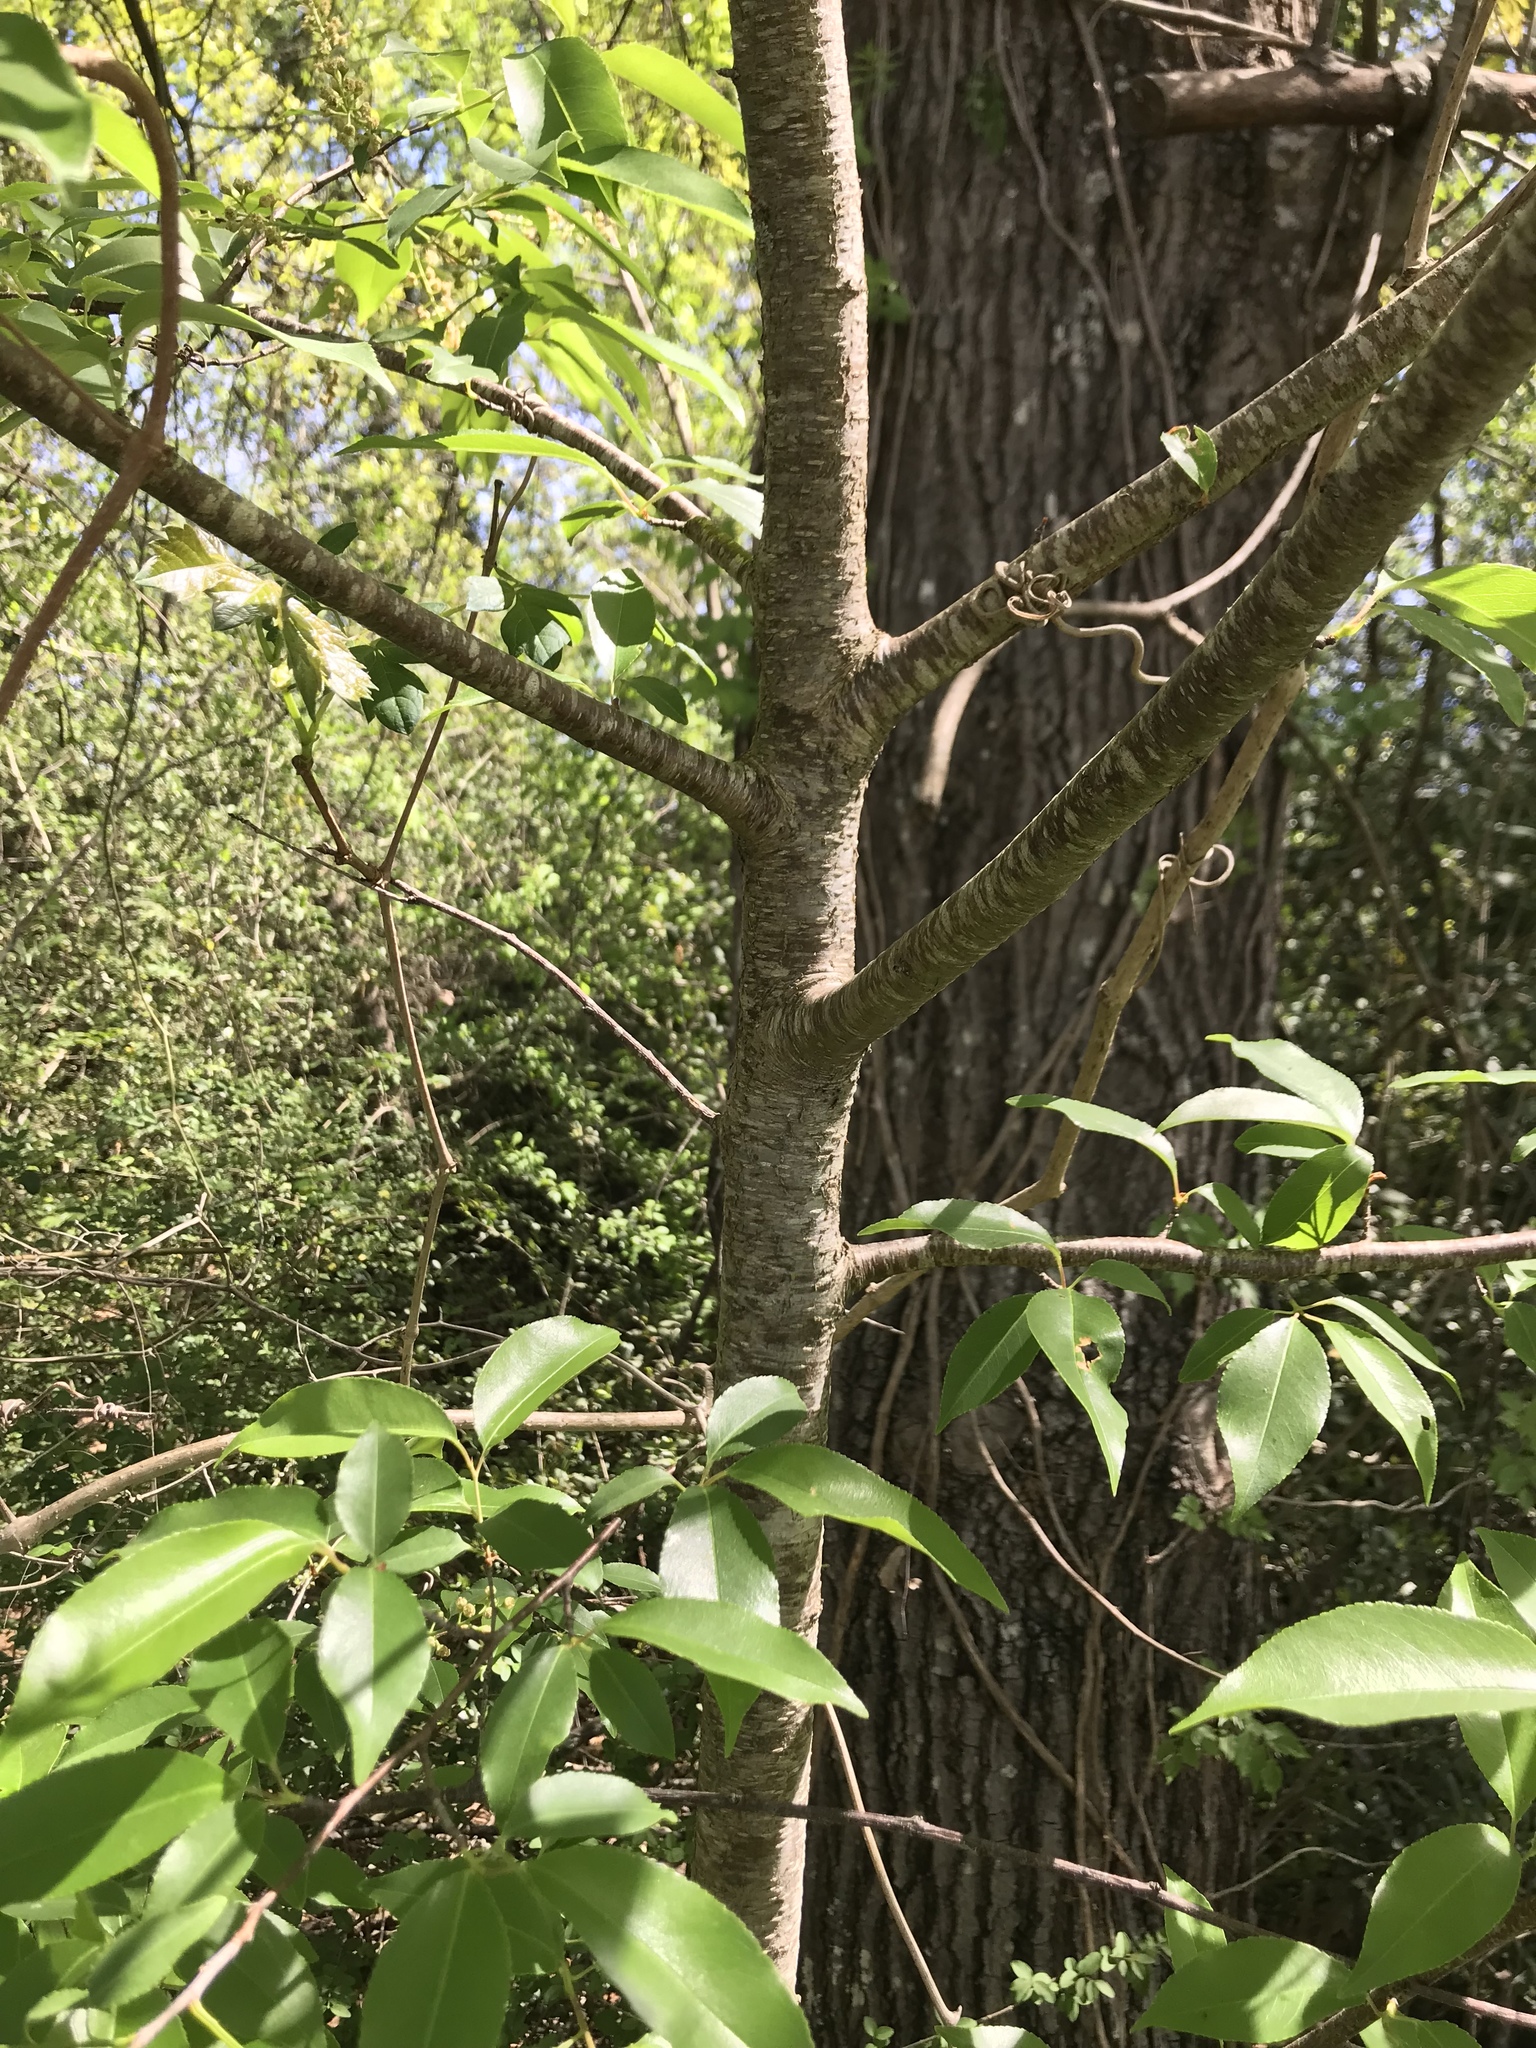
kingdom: Plantae
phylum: Tracheophyta
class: Magnoliopsida
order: Rosales
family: Rosaceae
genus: Prunus
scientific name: Prunus serotina
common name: Black cherry
